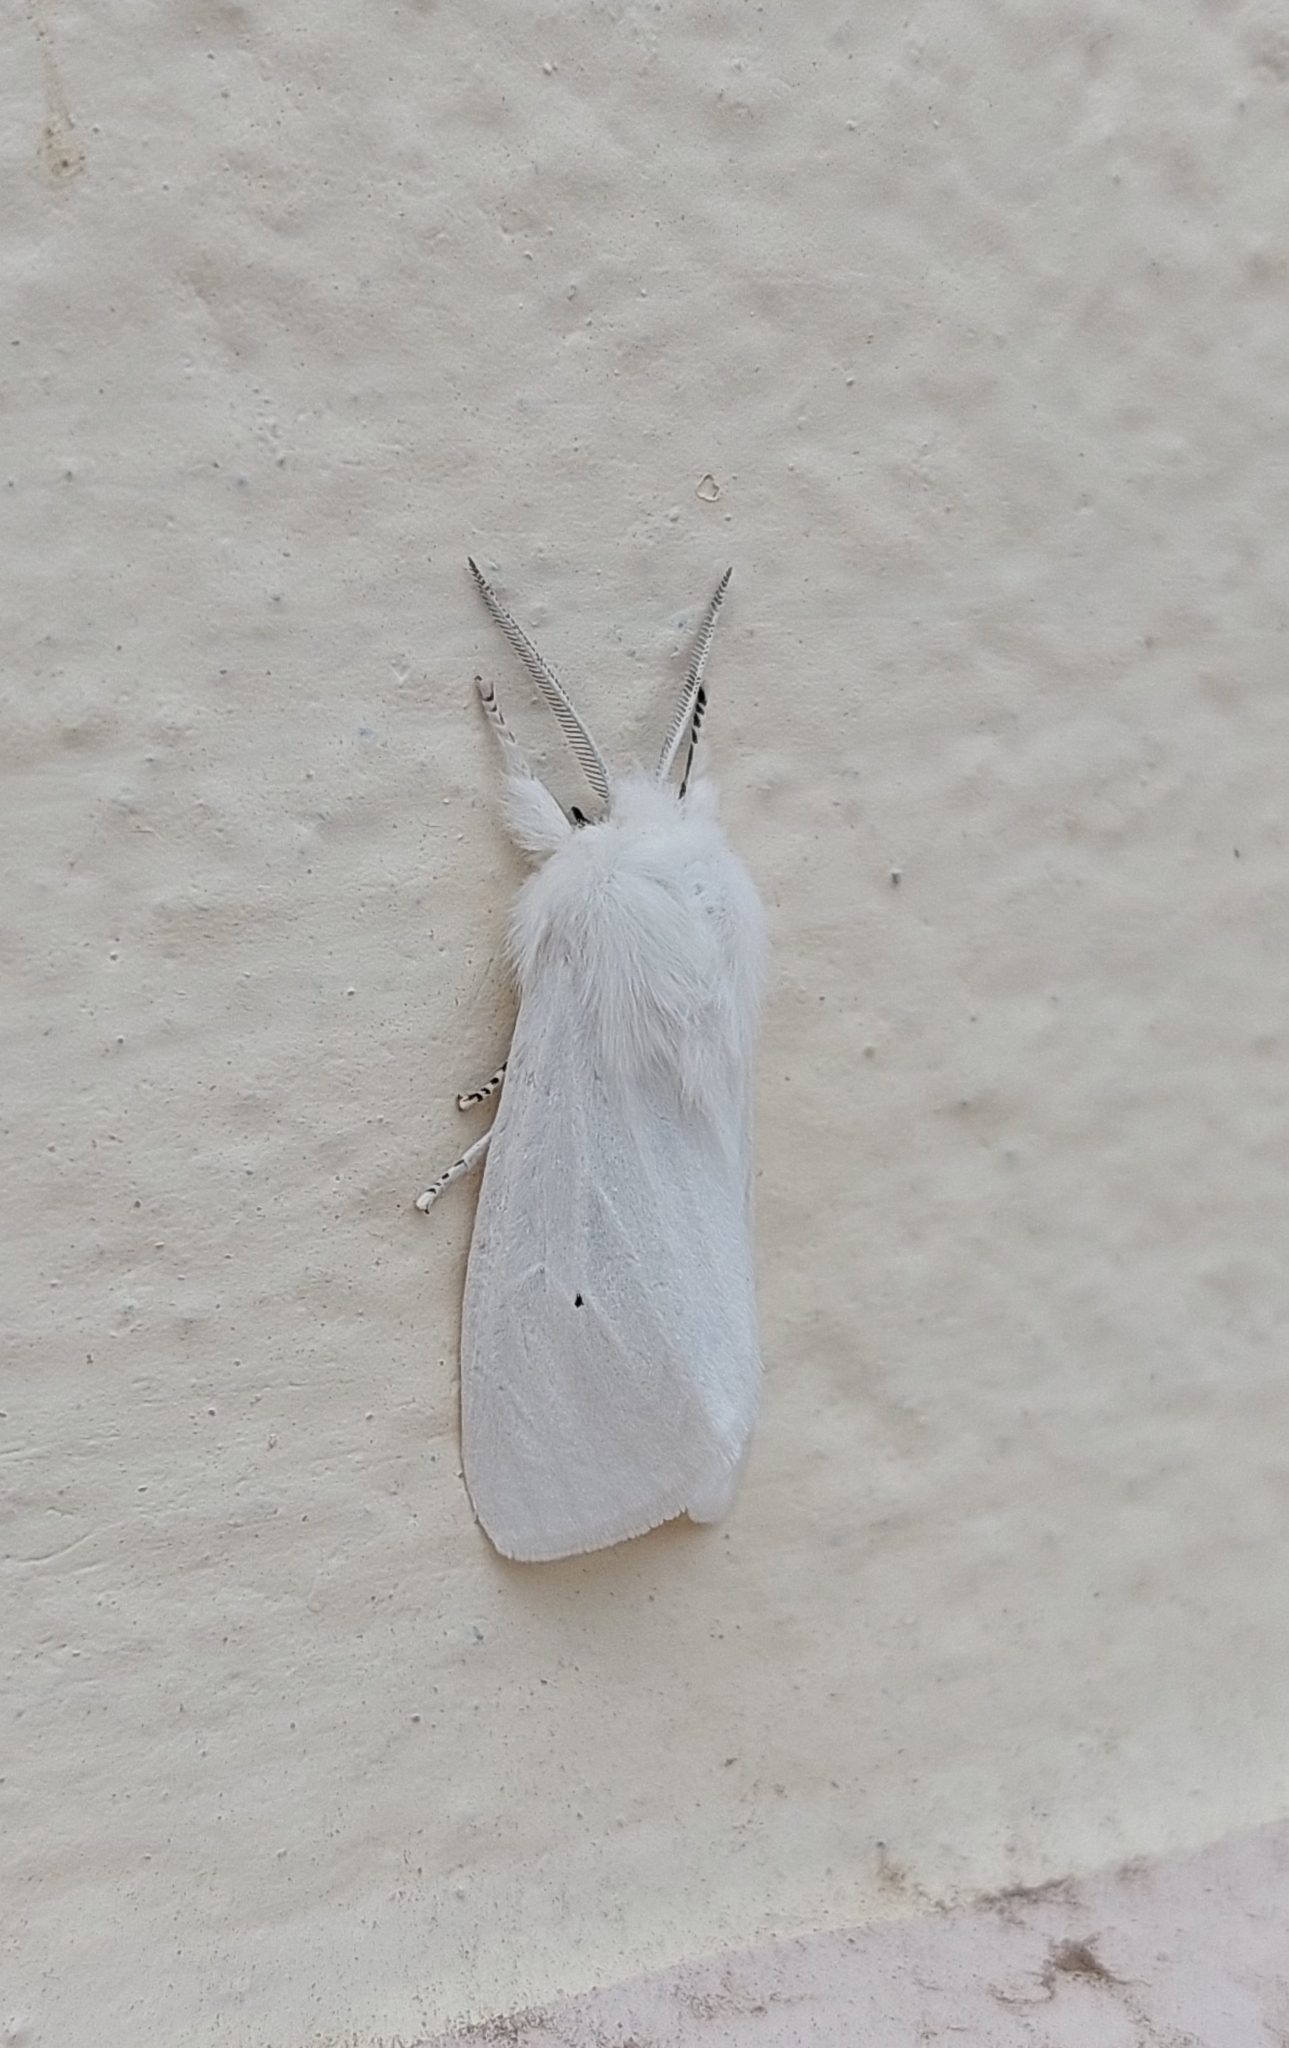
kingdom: Animalia
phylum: Arthropoda
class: Insecta
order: Lepidoptera
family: Erebidae
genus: Spilosoma
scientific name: Spilosoma virginica
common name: Virginia tiger moth
